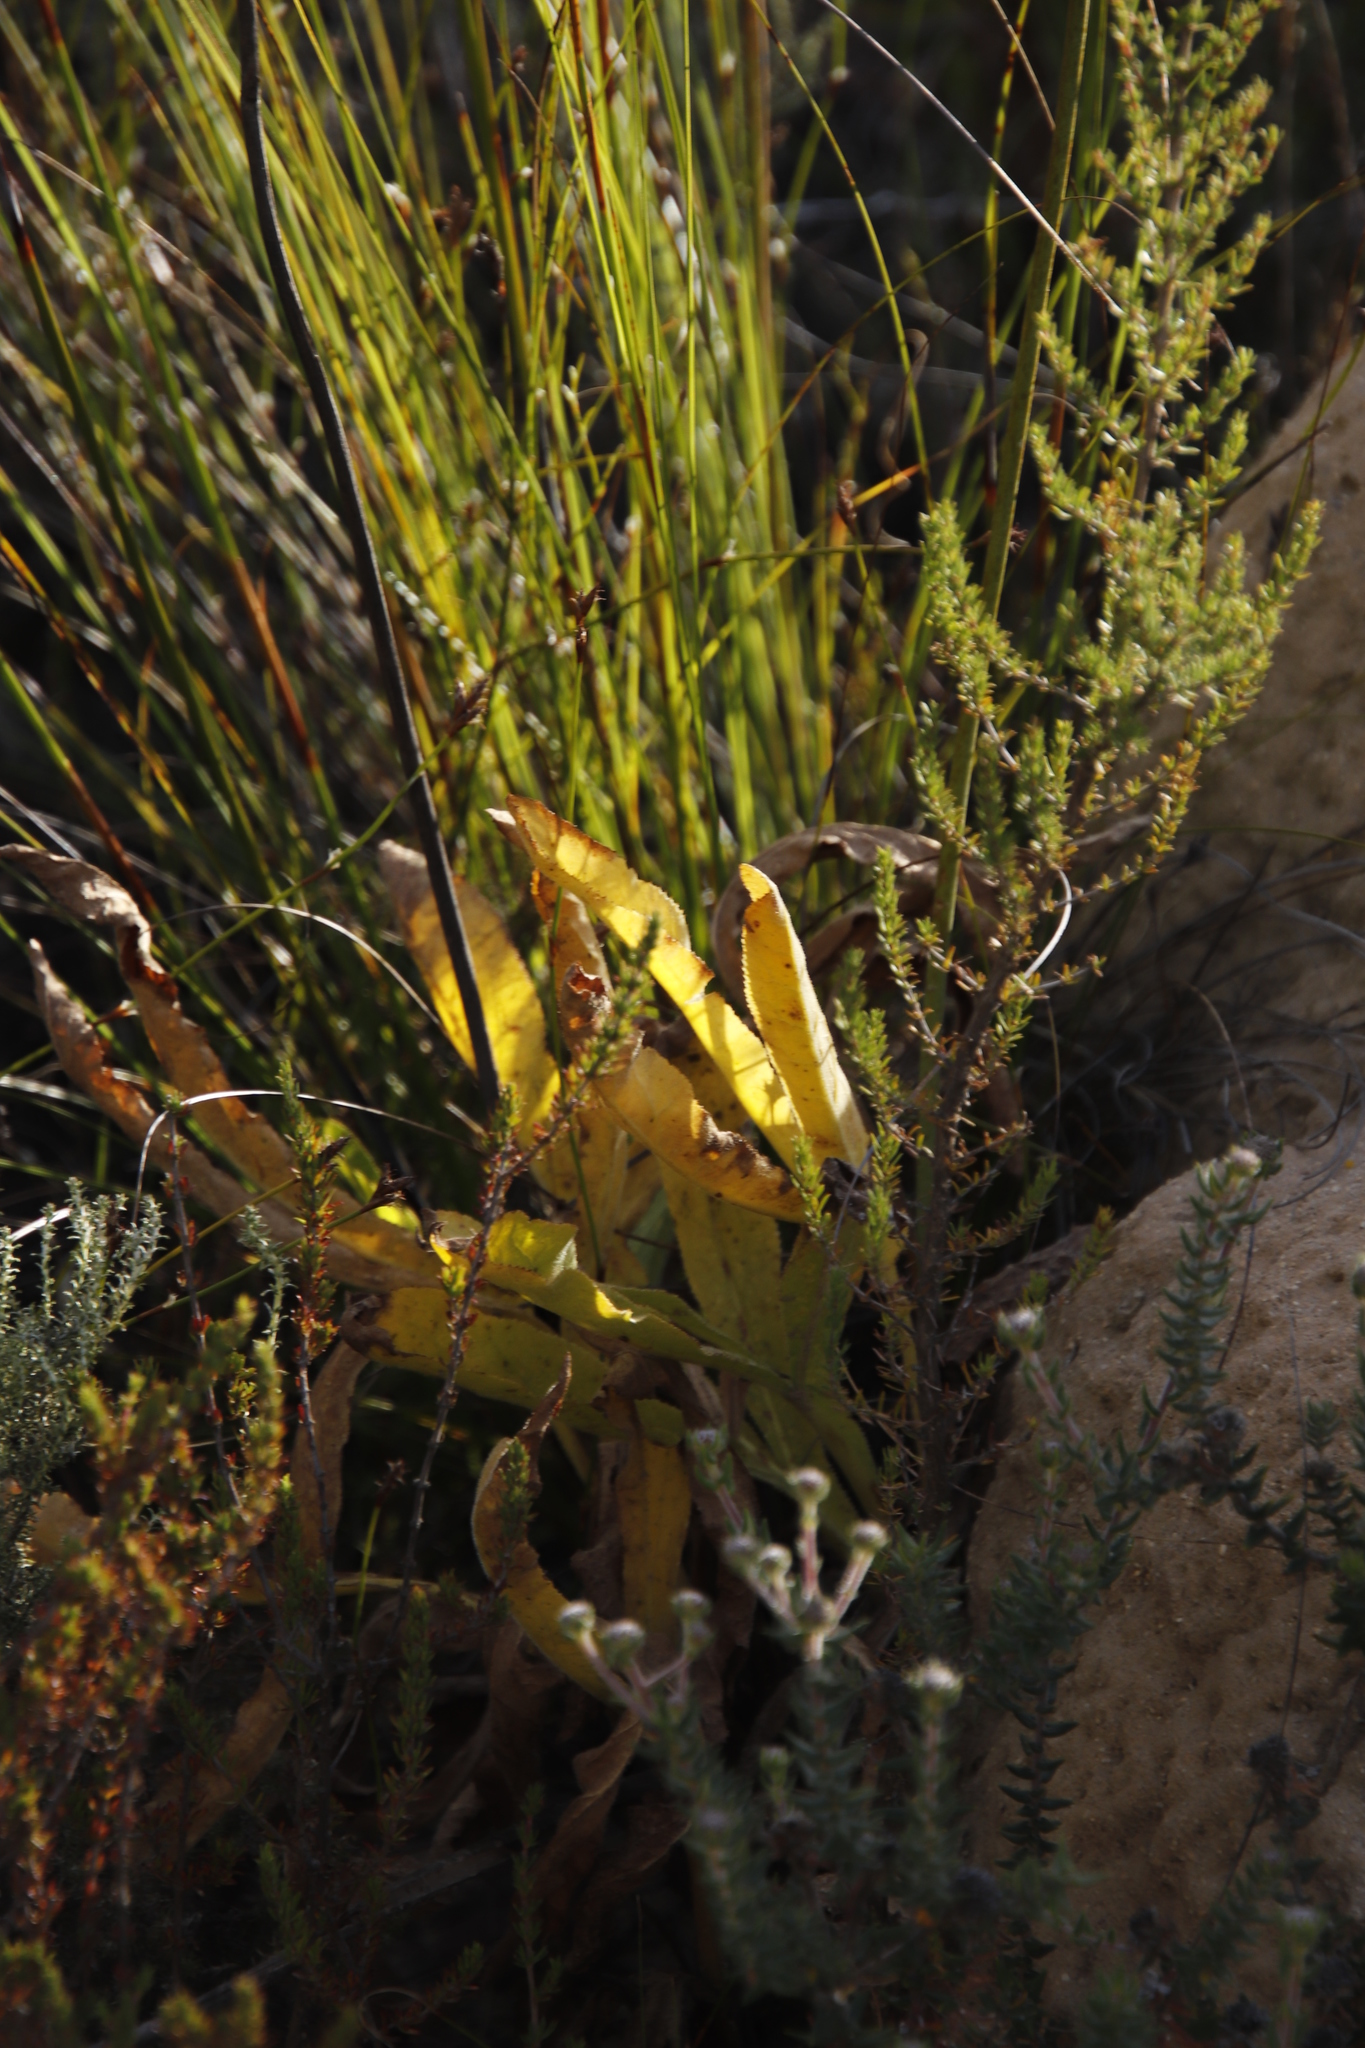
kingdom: Plantae
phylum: Tracheophyta
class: Magnoliopsida
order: Apiales
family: Apiaceae
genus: Lichtensteinia
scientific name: Lichtensteinia trifida
